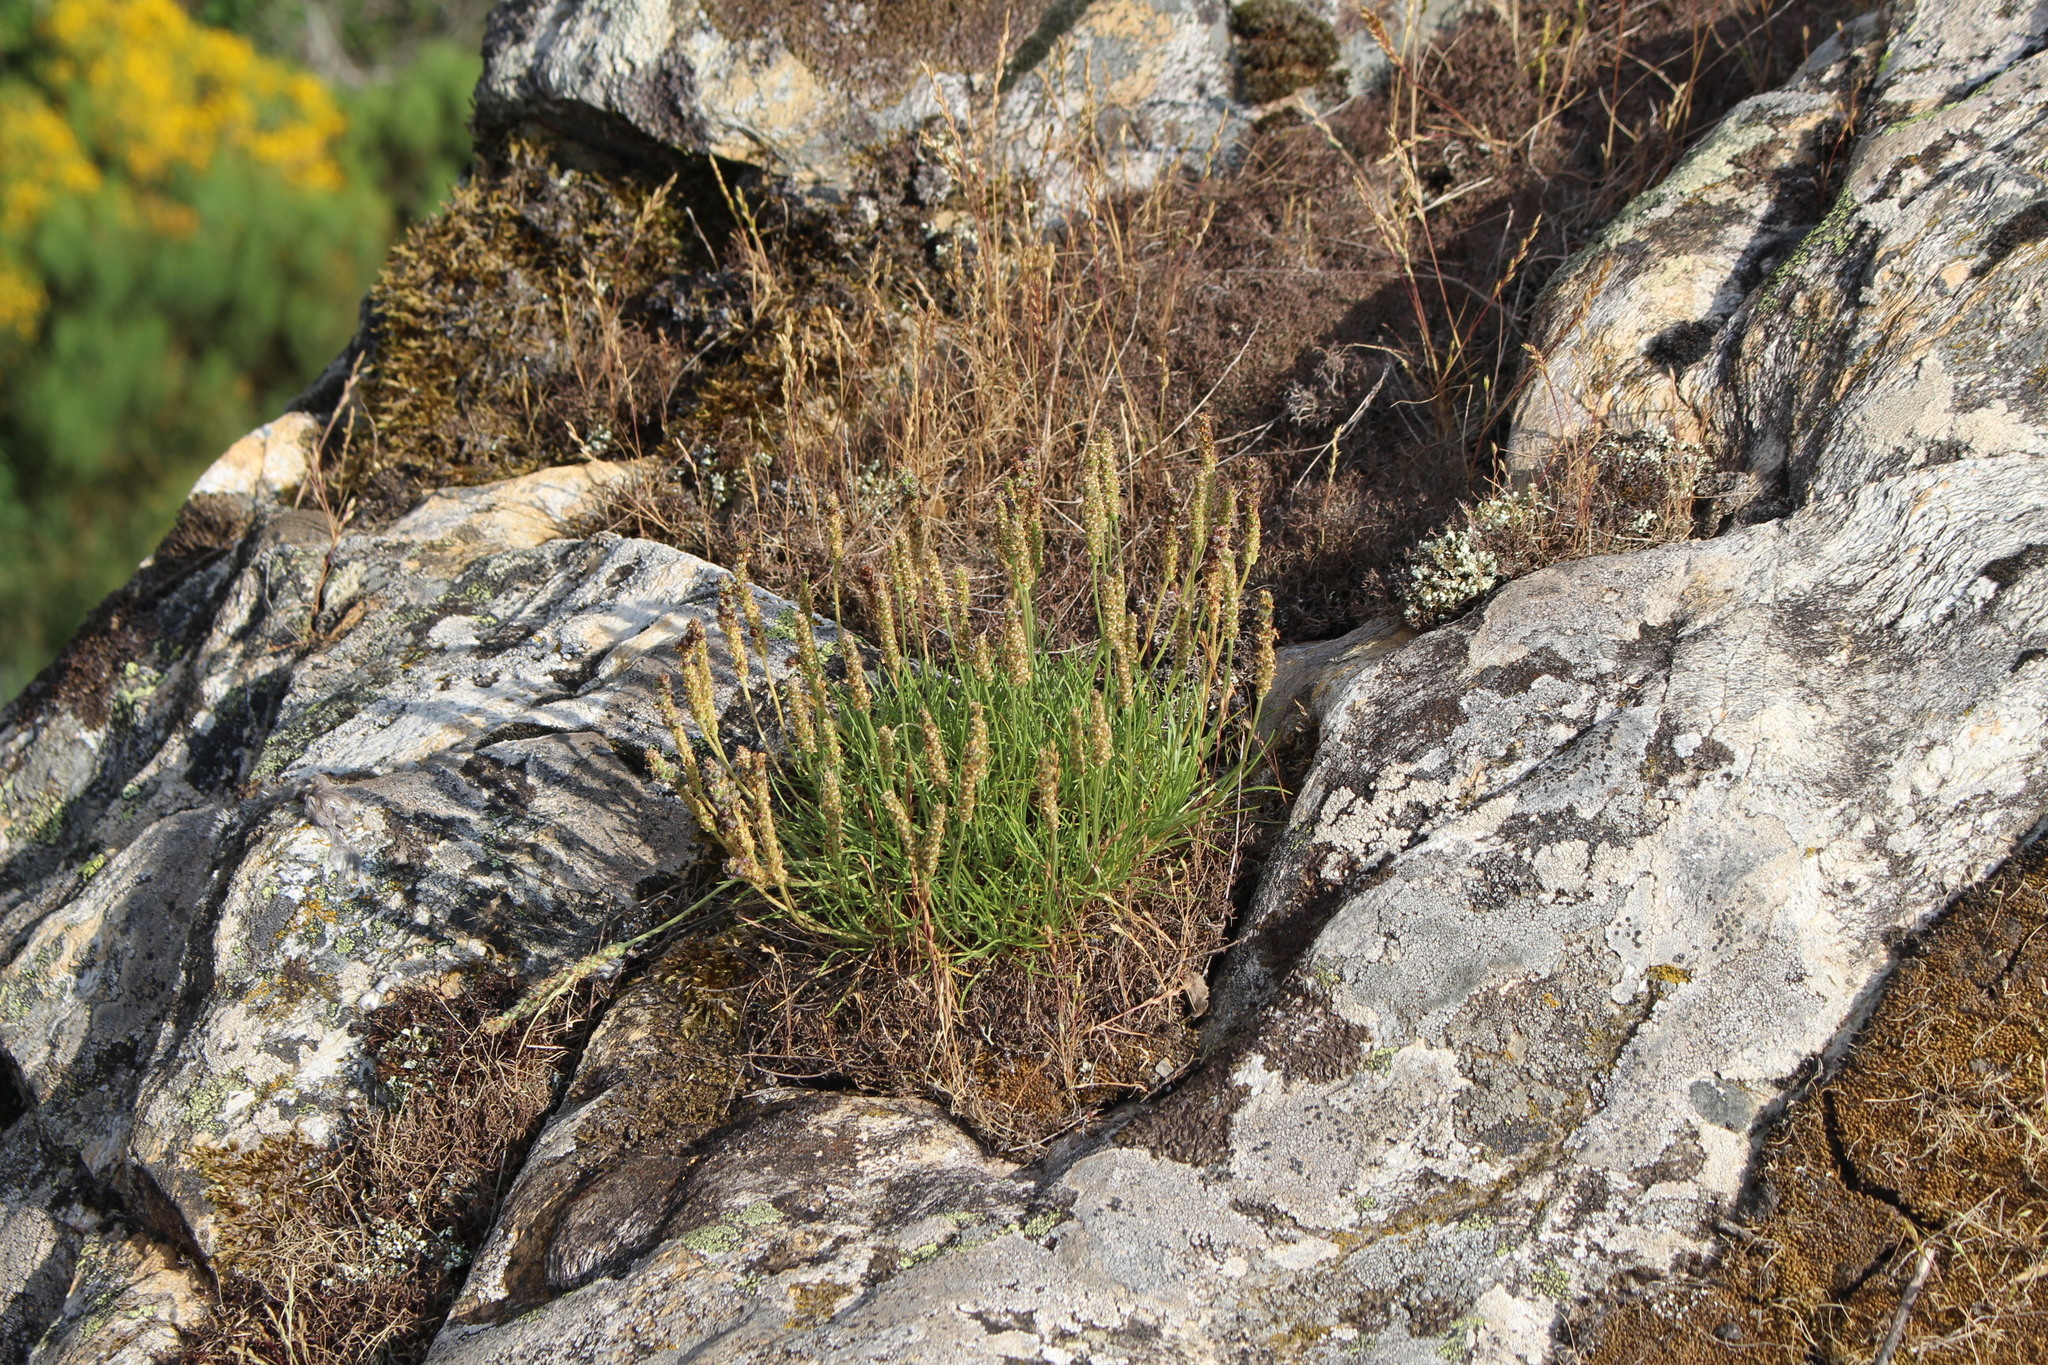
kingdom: Plantae
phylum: Tracheophyta
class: Magnoliopsida
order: Lamiales
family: Plantaginaceae
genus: Plantago
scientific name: Plantago subulata
